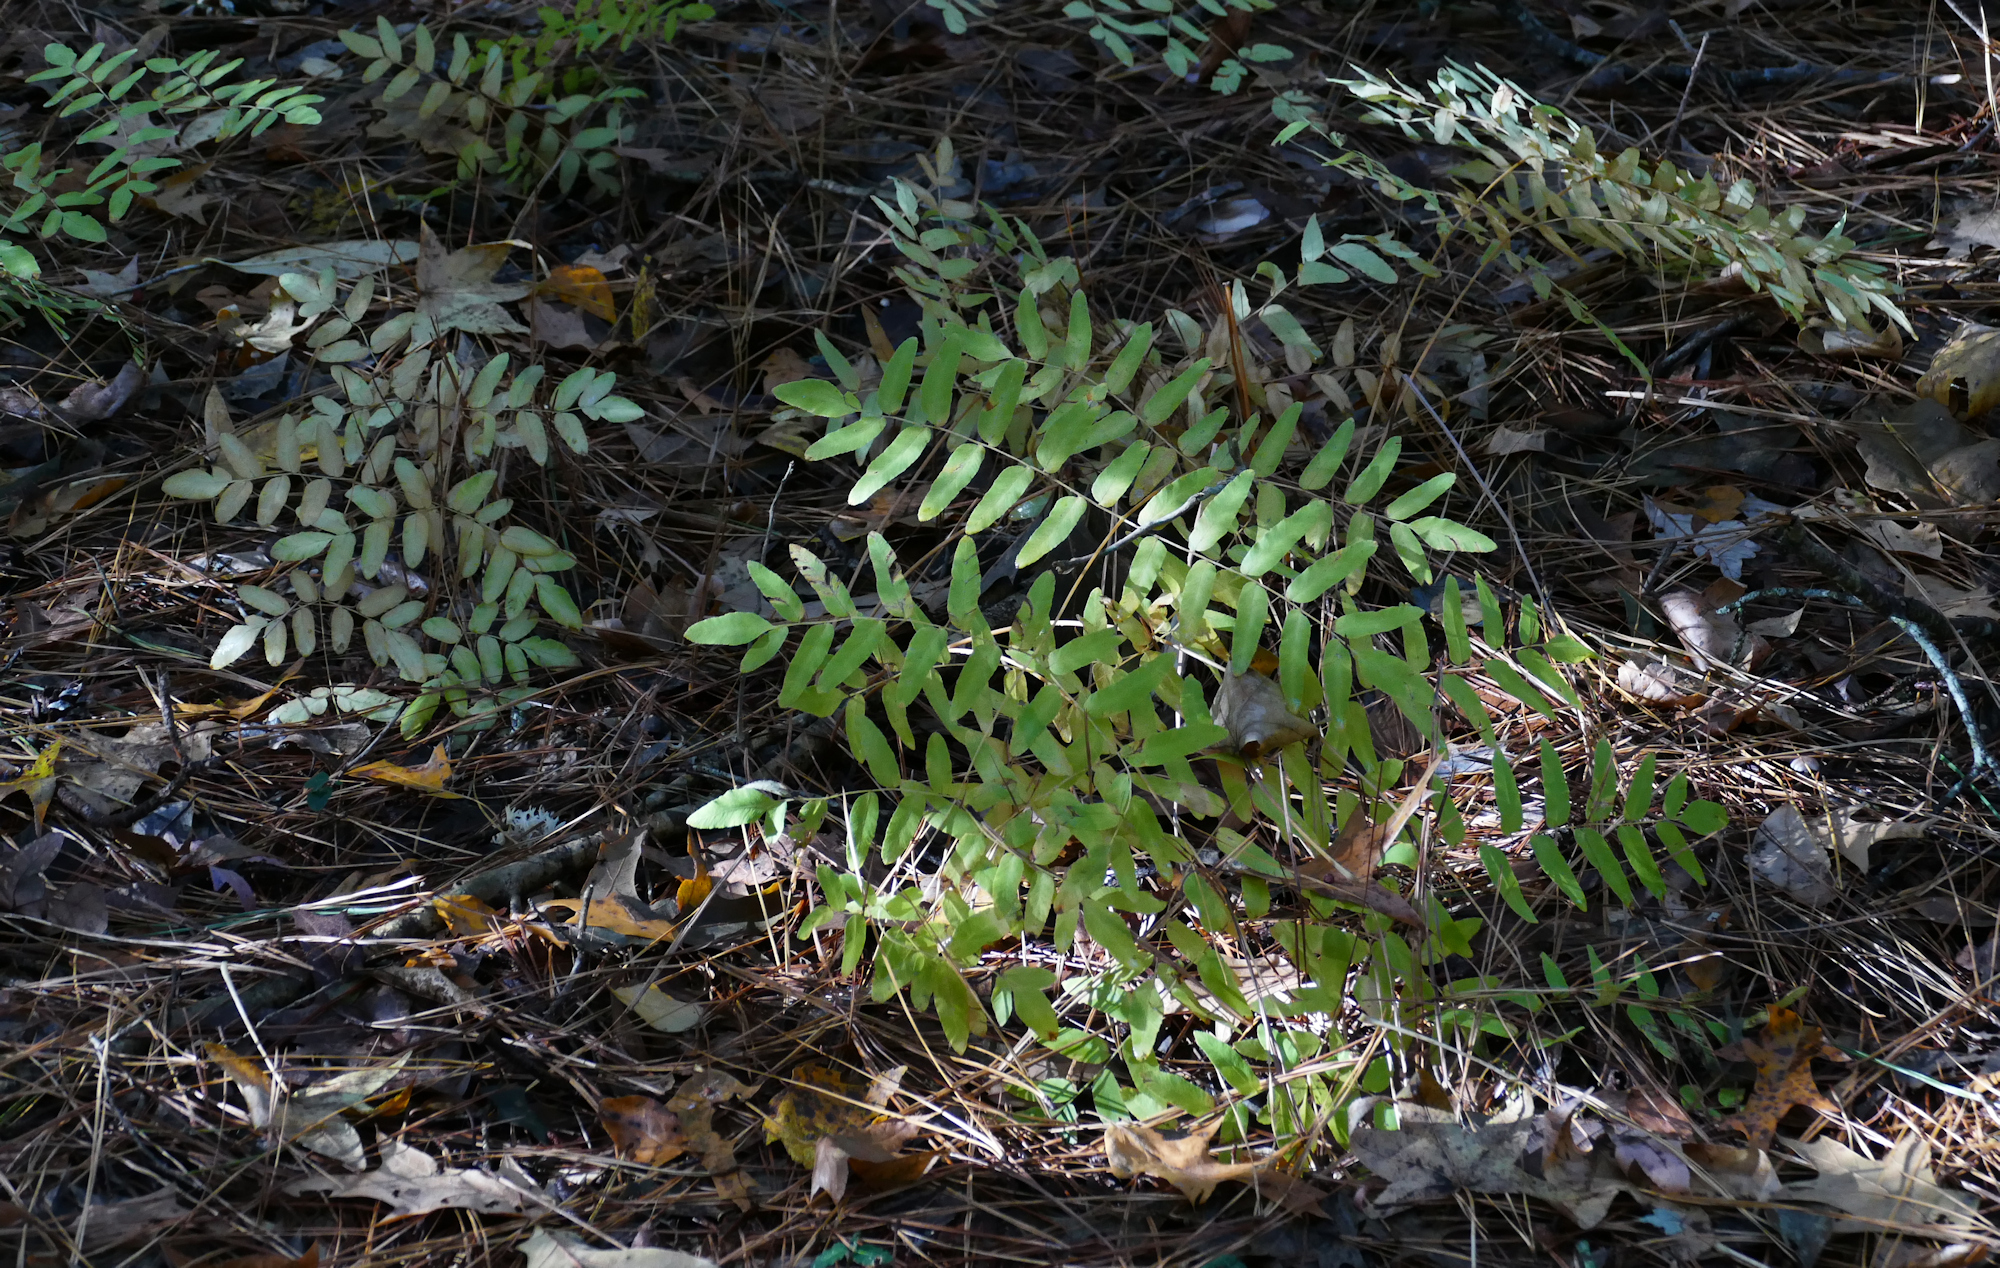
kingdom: Plantae
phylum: Tracheophyta
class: Polypodiopsida
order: Osmundales
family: Osmundaceae
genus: Osmunda
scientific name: Osmunda spectabilis
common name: American royal fern
